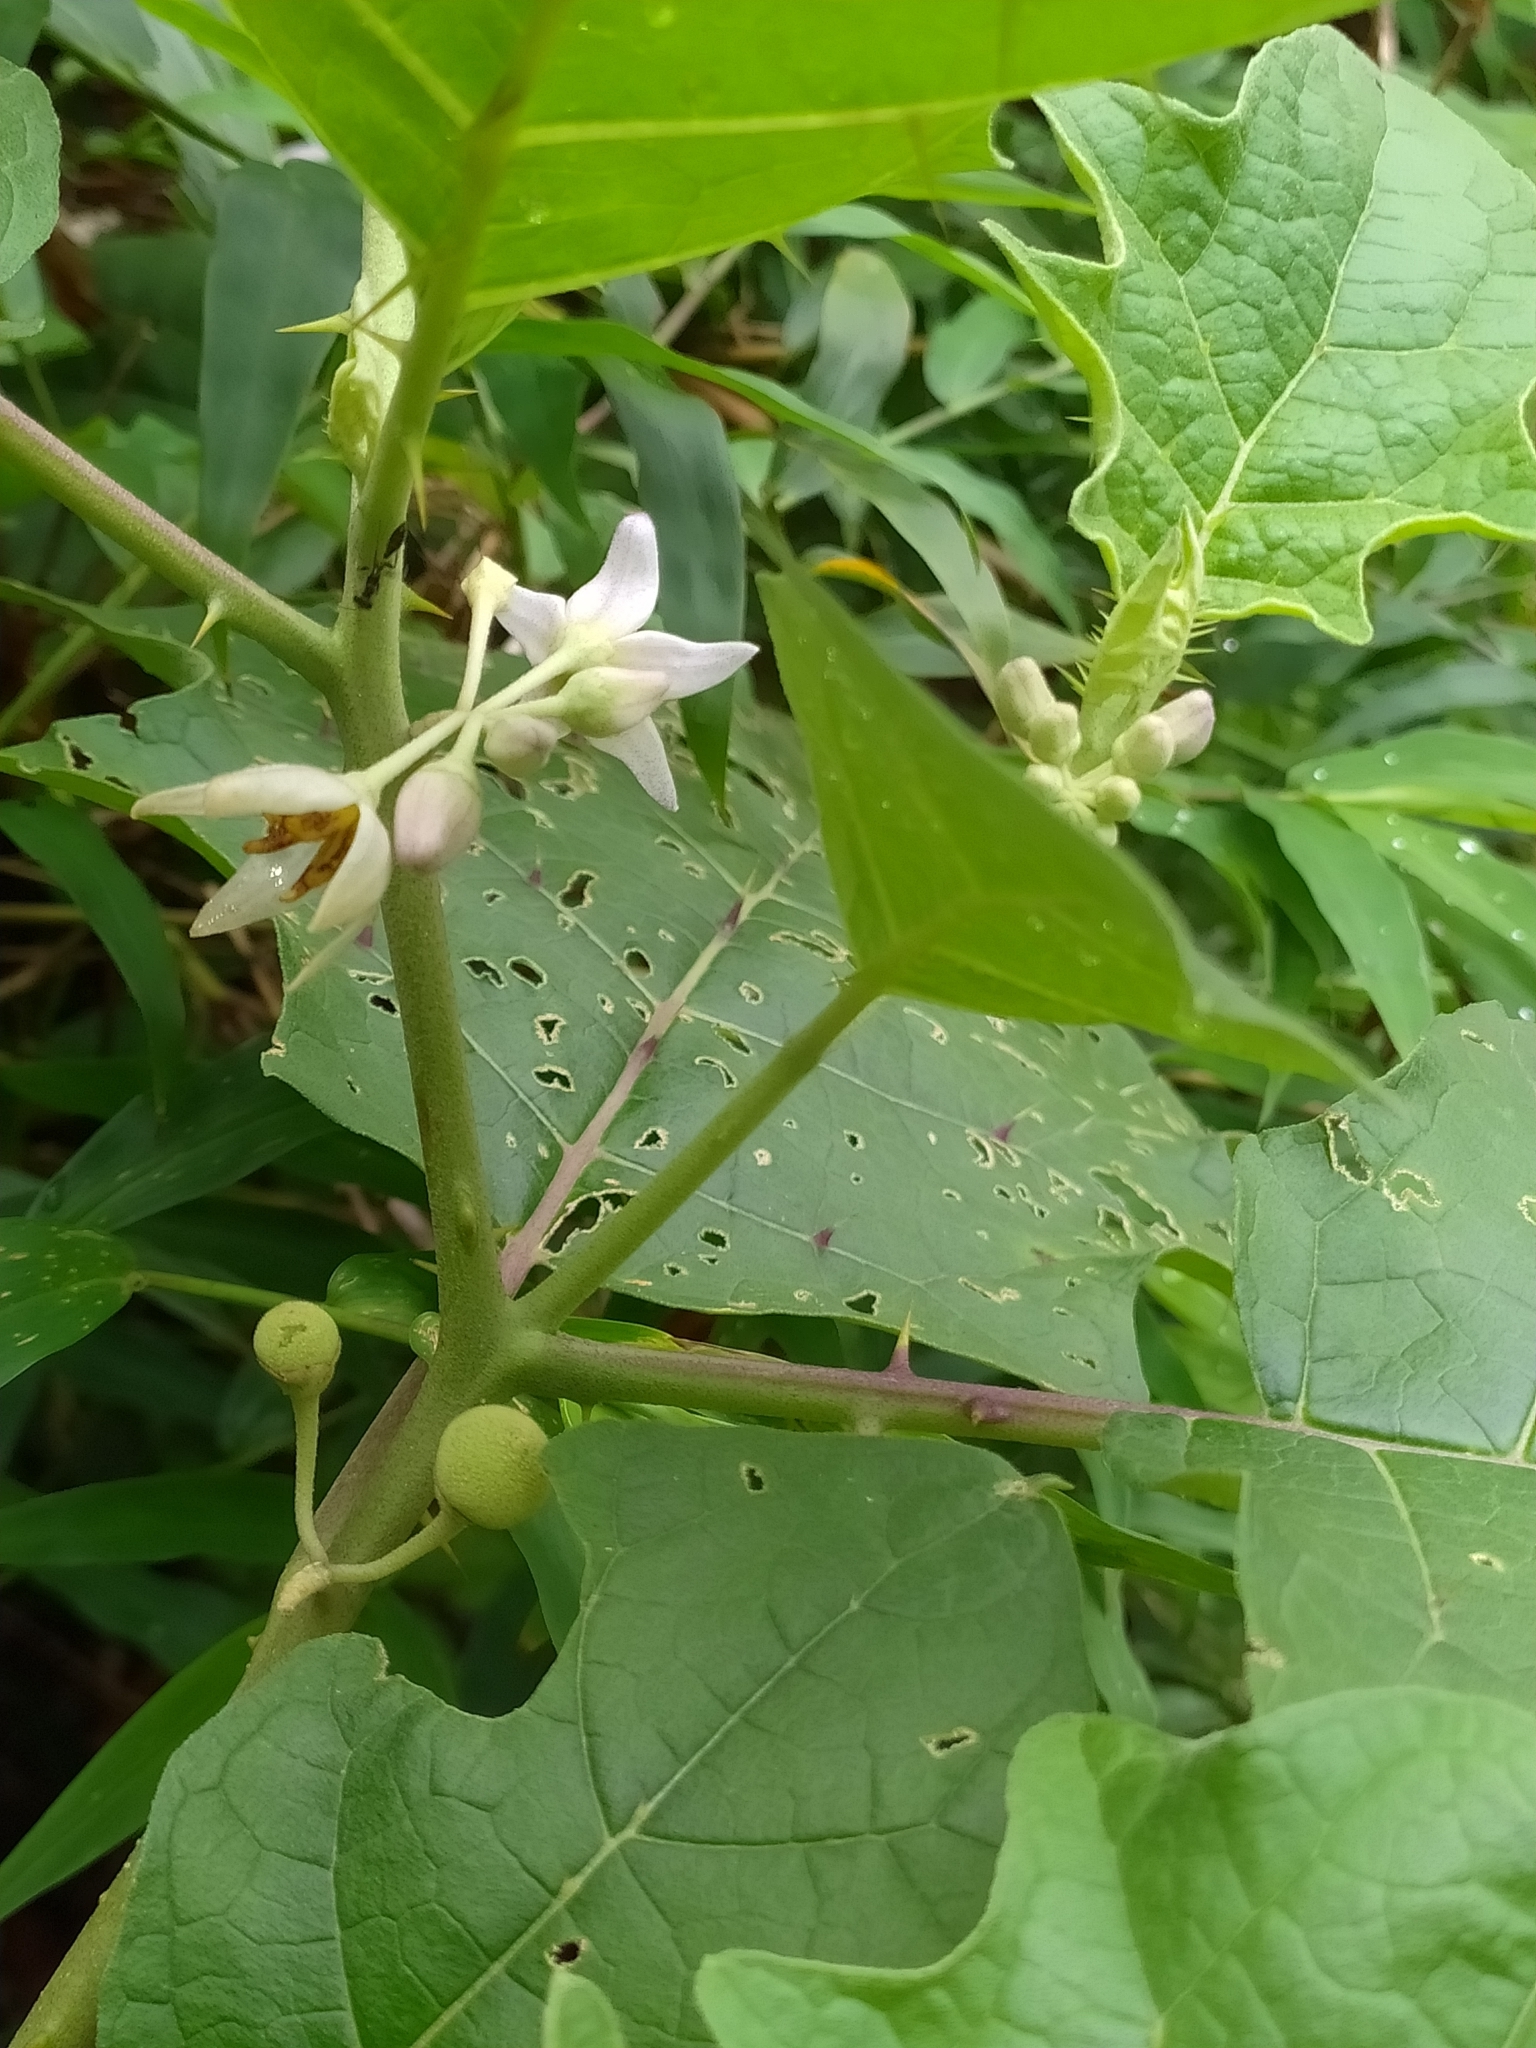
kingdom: Plantae
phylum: Tracheophyta
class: Magnoliopsida
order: Solanales
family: Solanaceae
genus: Solanum
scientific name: Solanum
